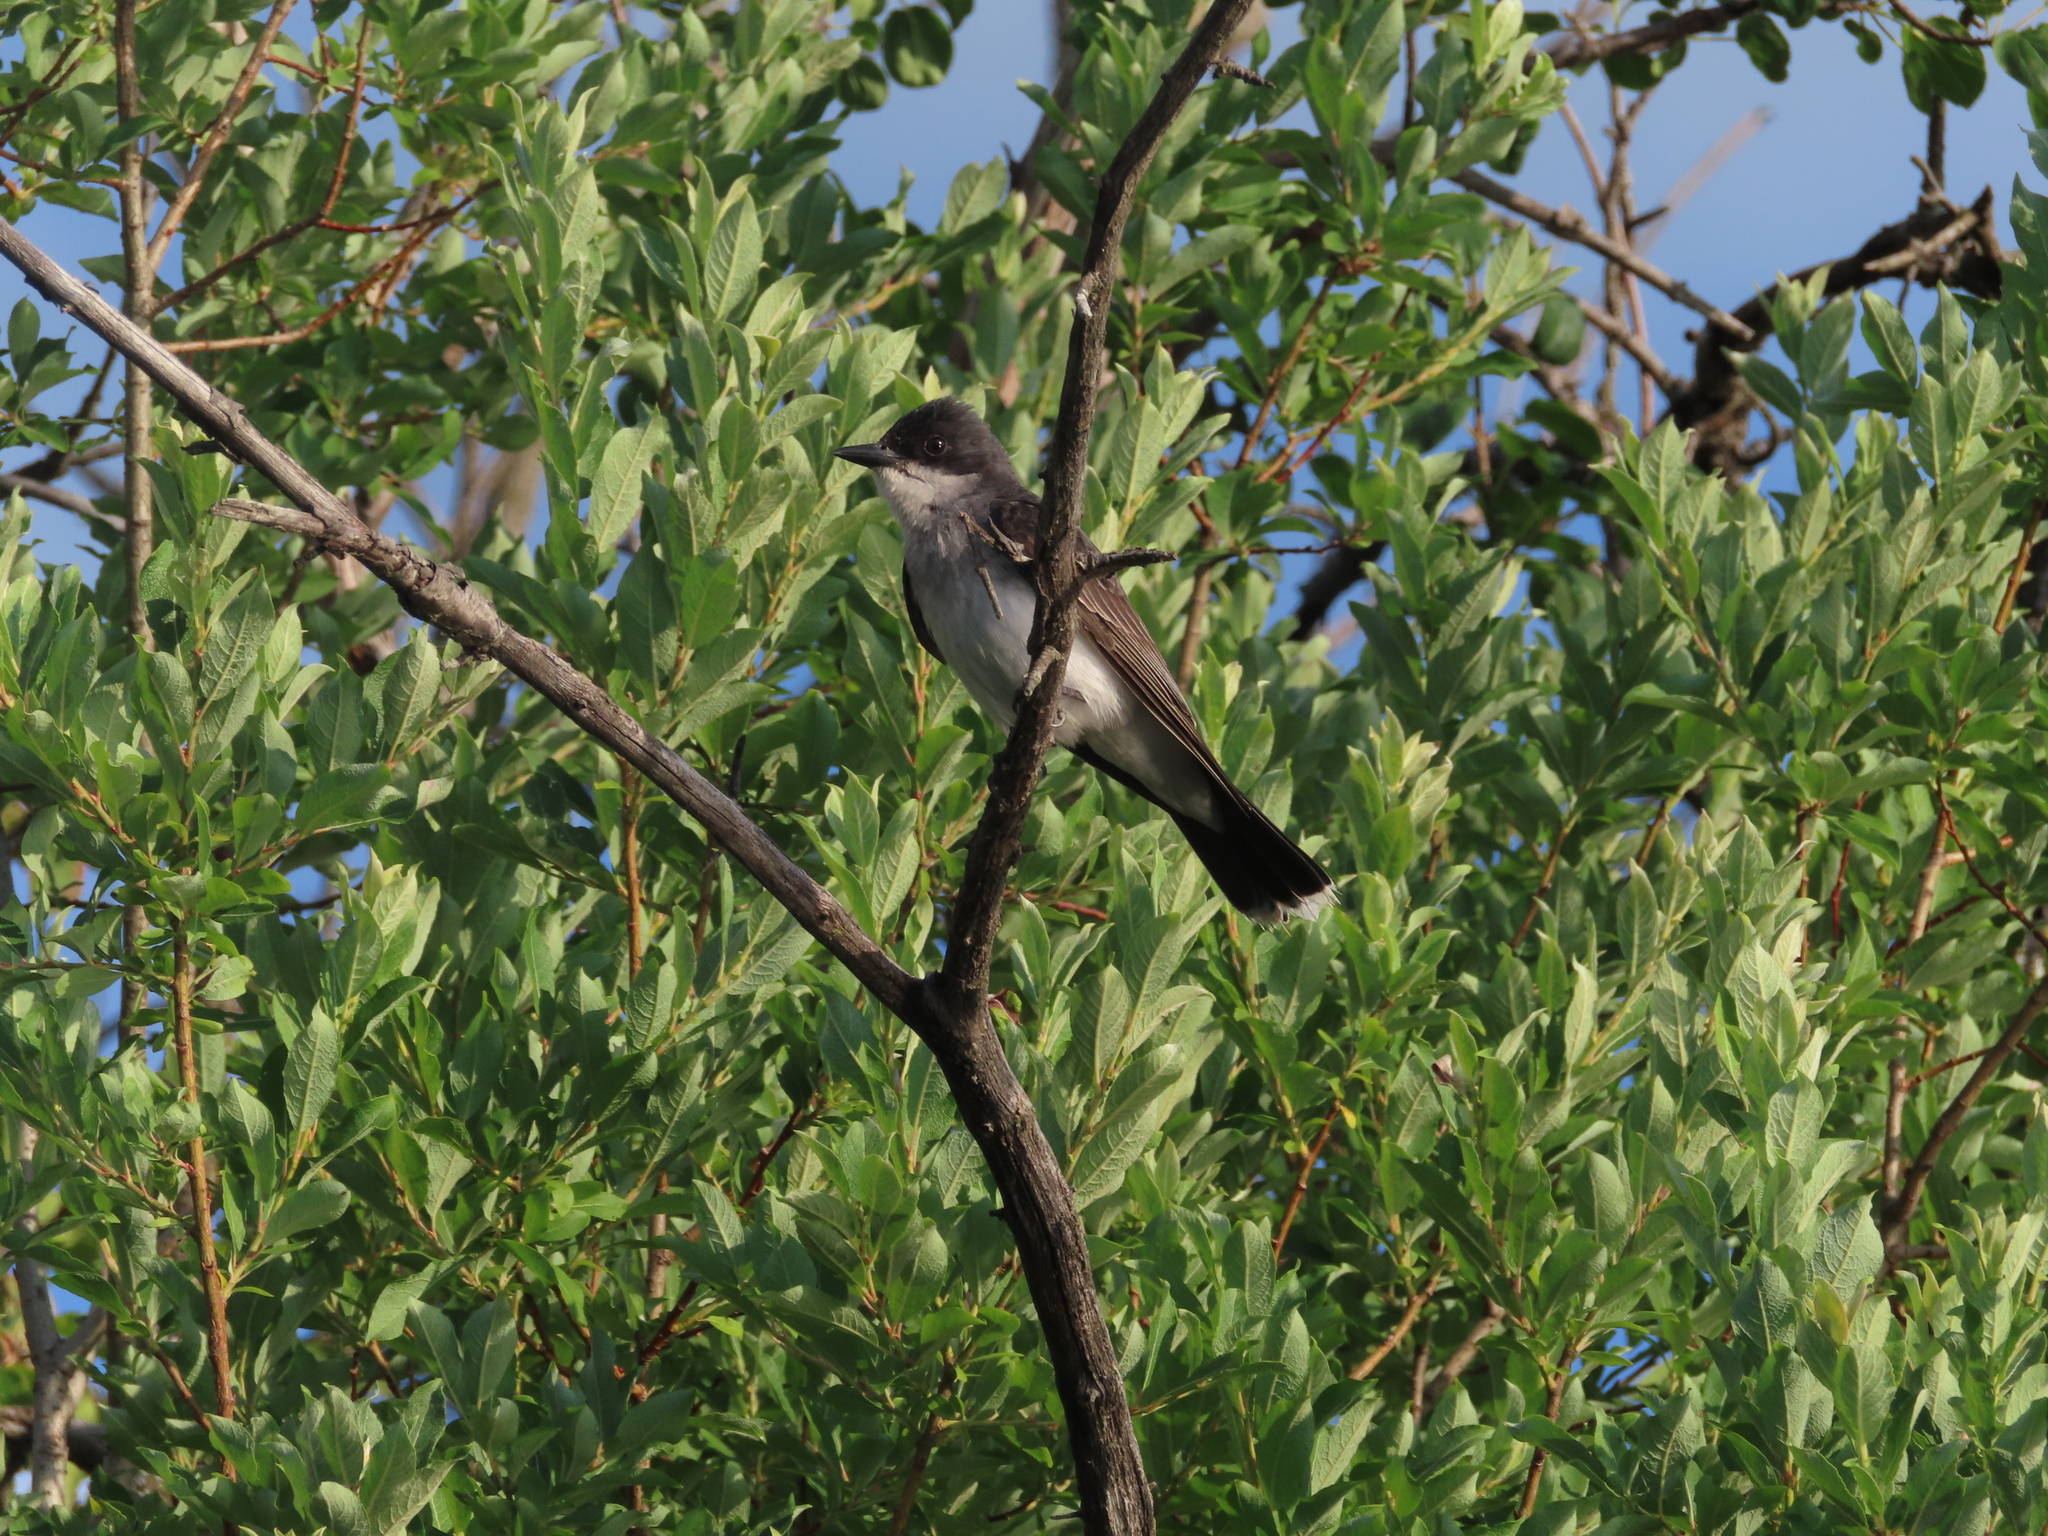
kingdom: Animalia
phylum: Chordata
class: Aves
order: Passeriformes
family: Tyrannidae
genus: Tyrannus
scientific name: Tyrannus tyrannus
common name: Eastern kingbird
